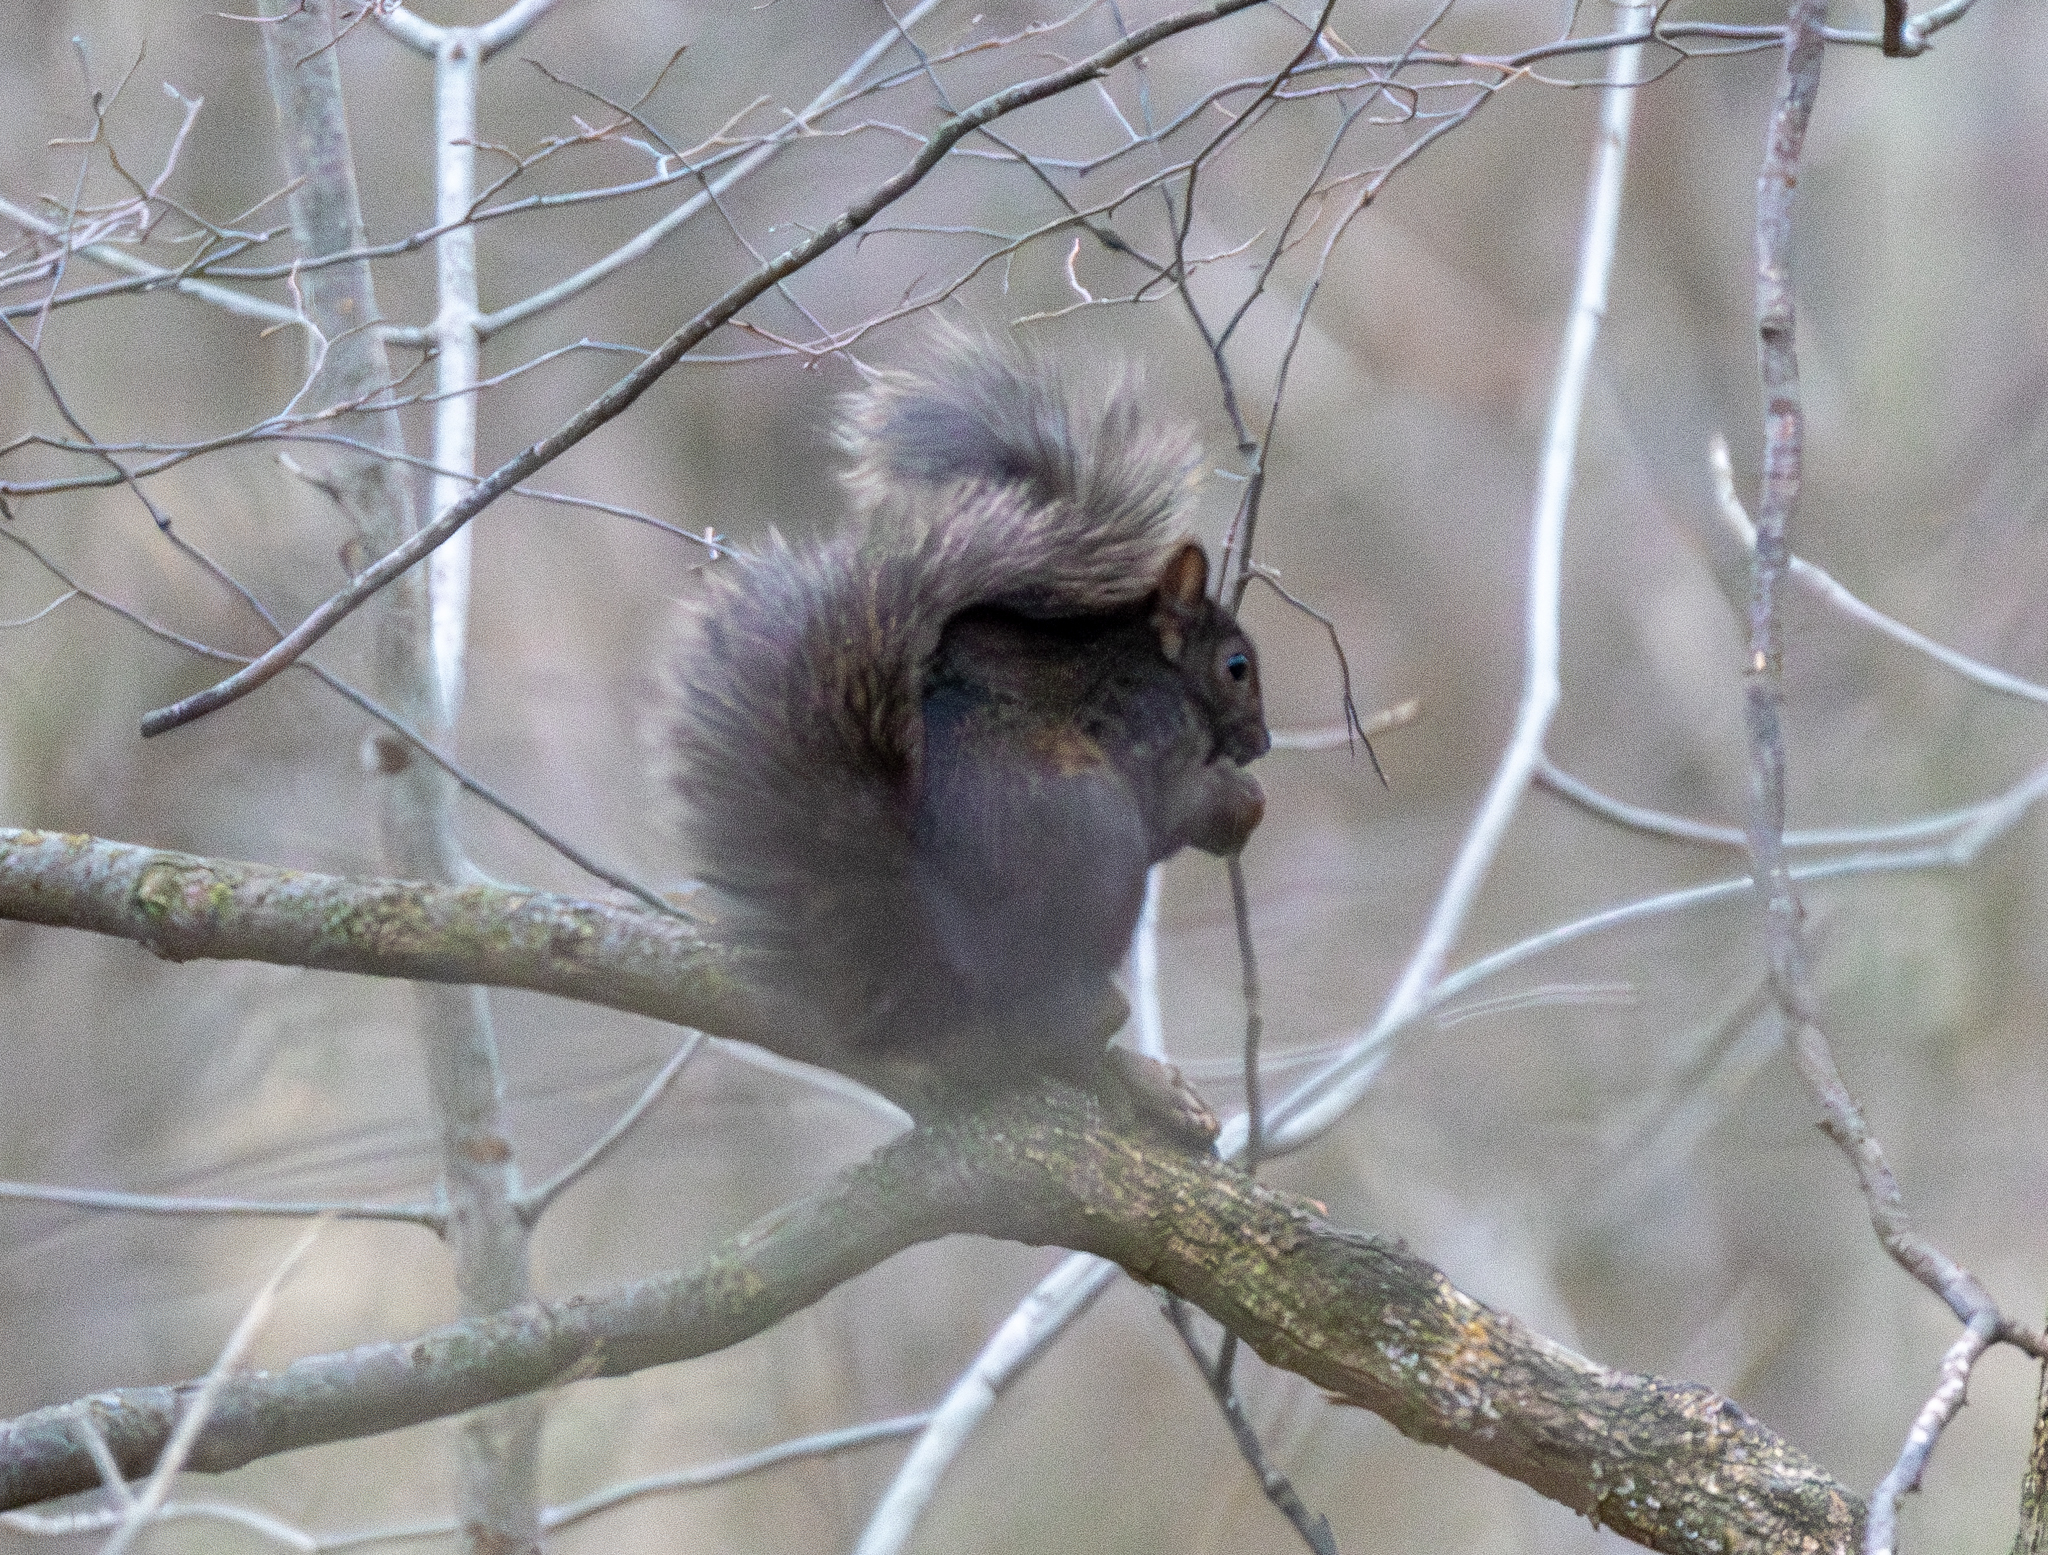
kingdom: Animalia
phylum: Chordata
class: Mammalia
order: Rodentia
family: Sciuridae
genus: Sciurus
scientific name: Sciurus carolinensis
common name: Eastern gray squirrel
